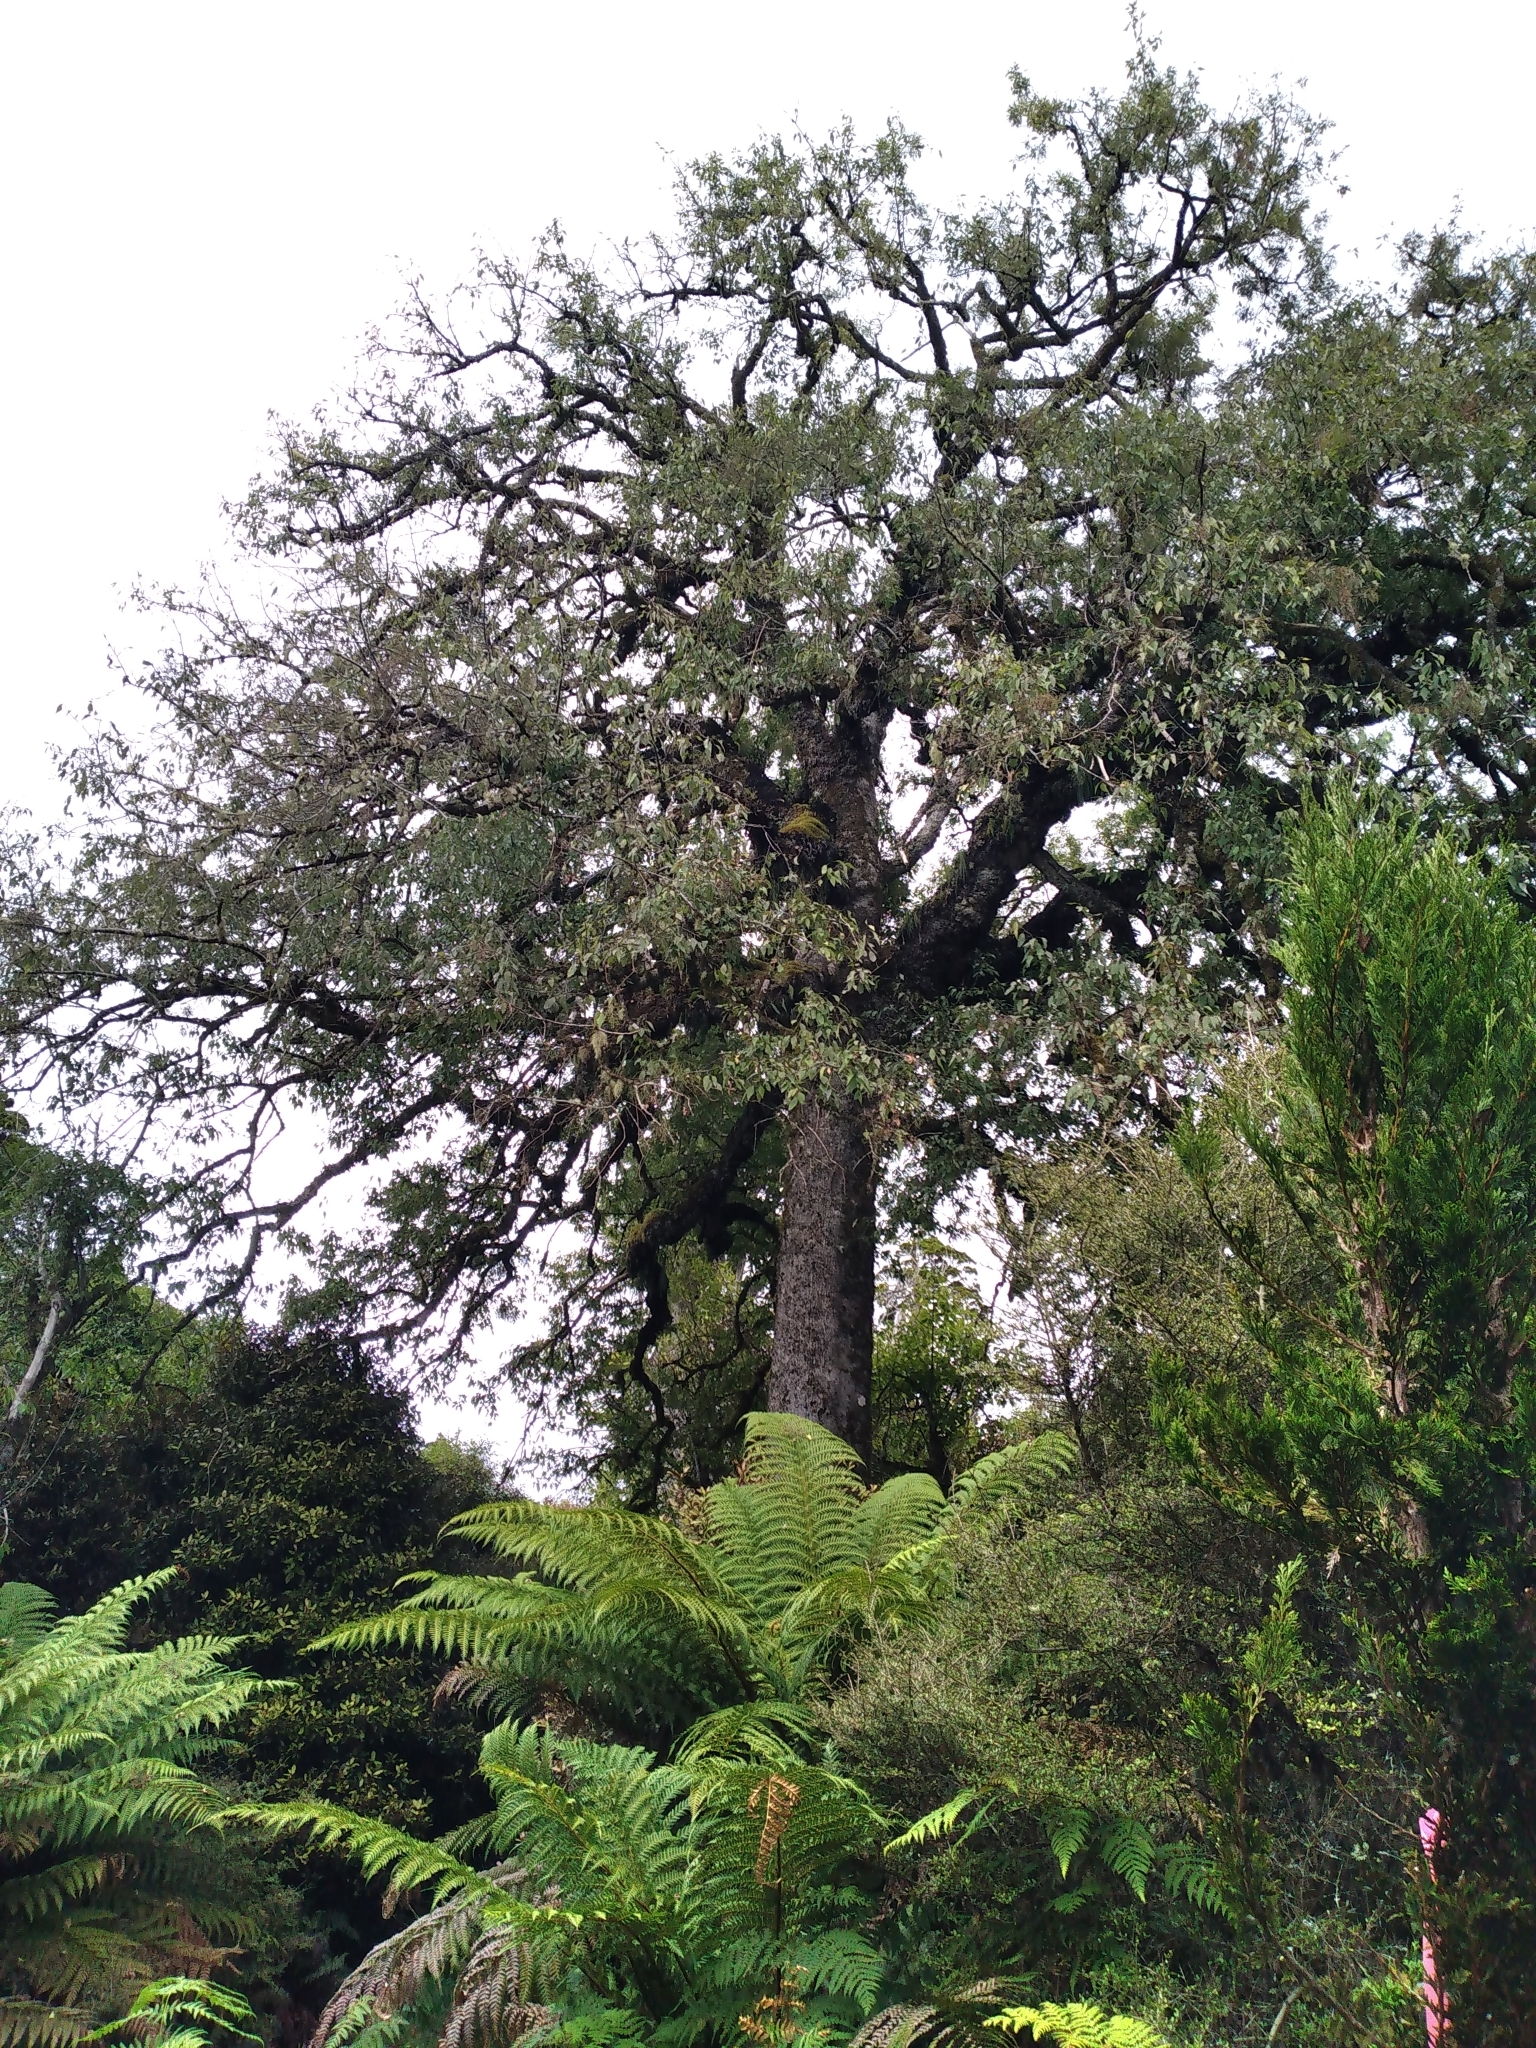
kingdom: Plantae
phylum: Tracheophyta
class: Magnoliopsida
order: Malvales
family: Malvaceae
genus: Plagianthus
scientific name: Plagianthus regius
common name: Manatu
